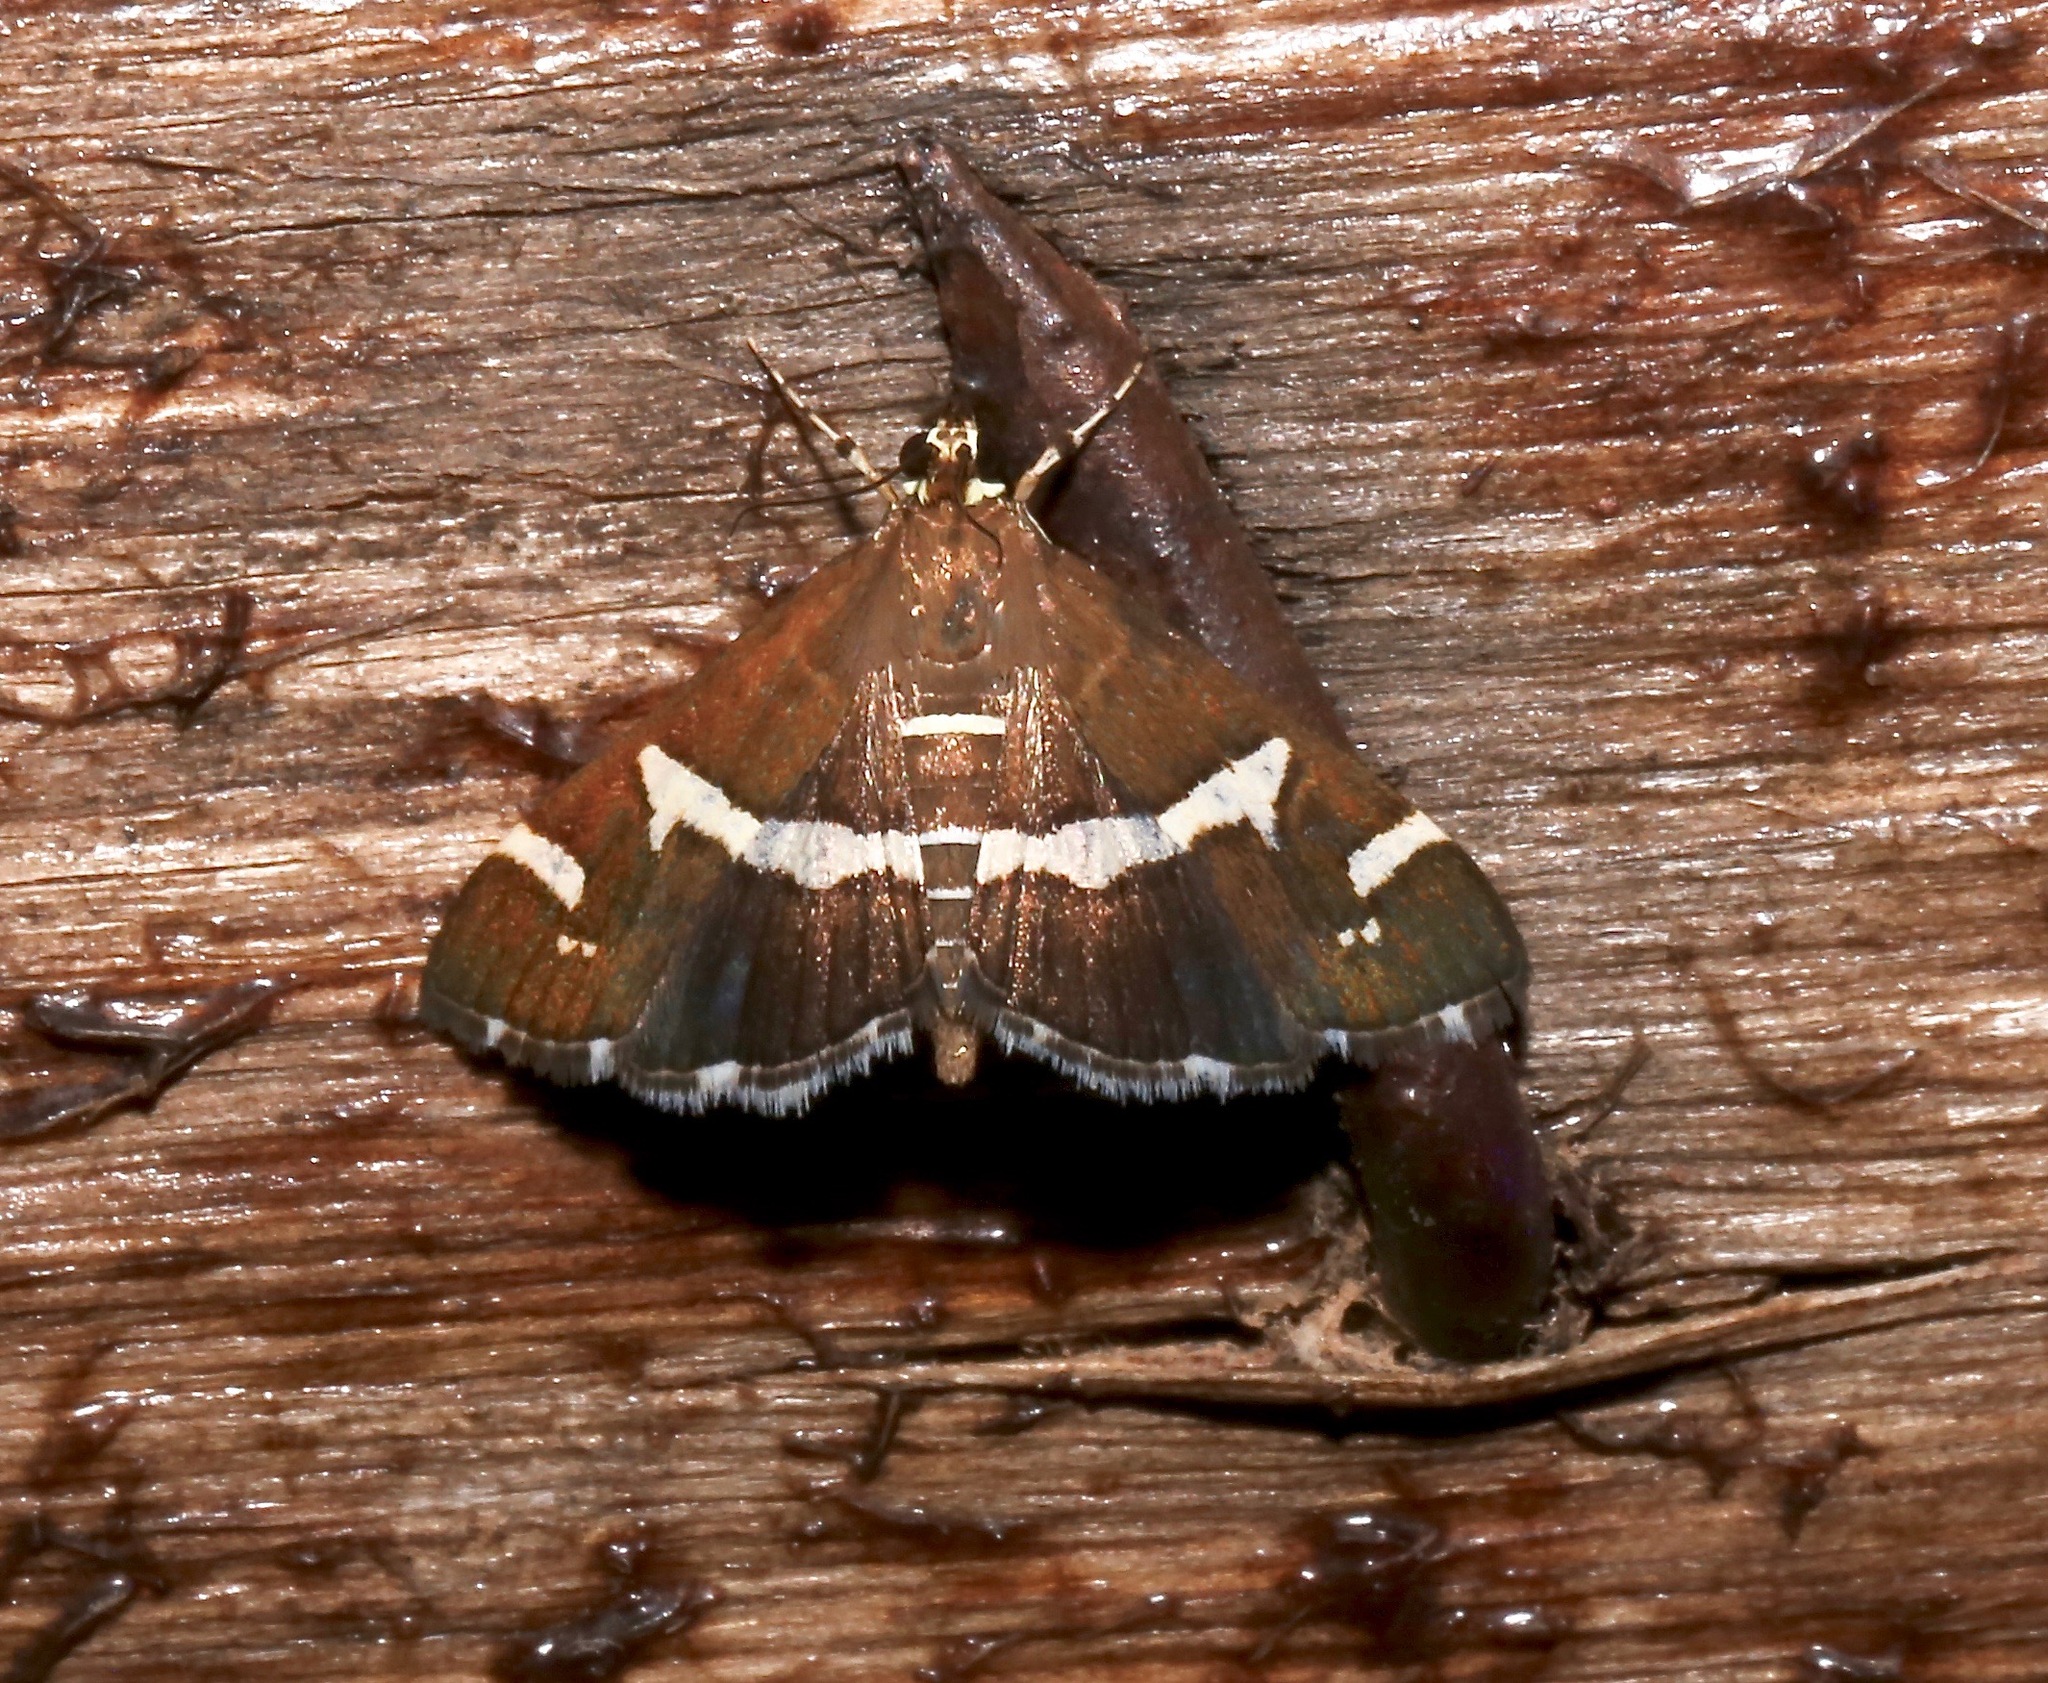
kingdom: Animalia
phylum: Arthropoda
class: Insecta
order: Lepidoptera
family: Crambidae
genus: Spoladea
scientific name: Spoladea recurvalis
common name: Beet webworm moth
